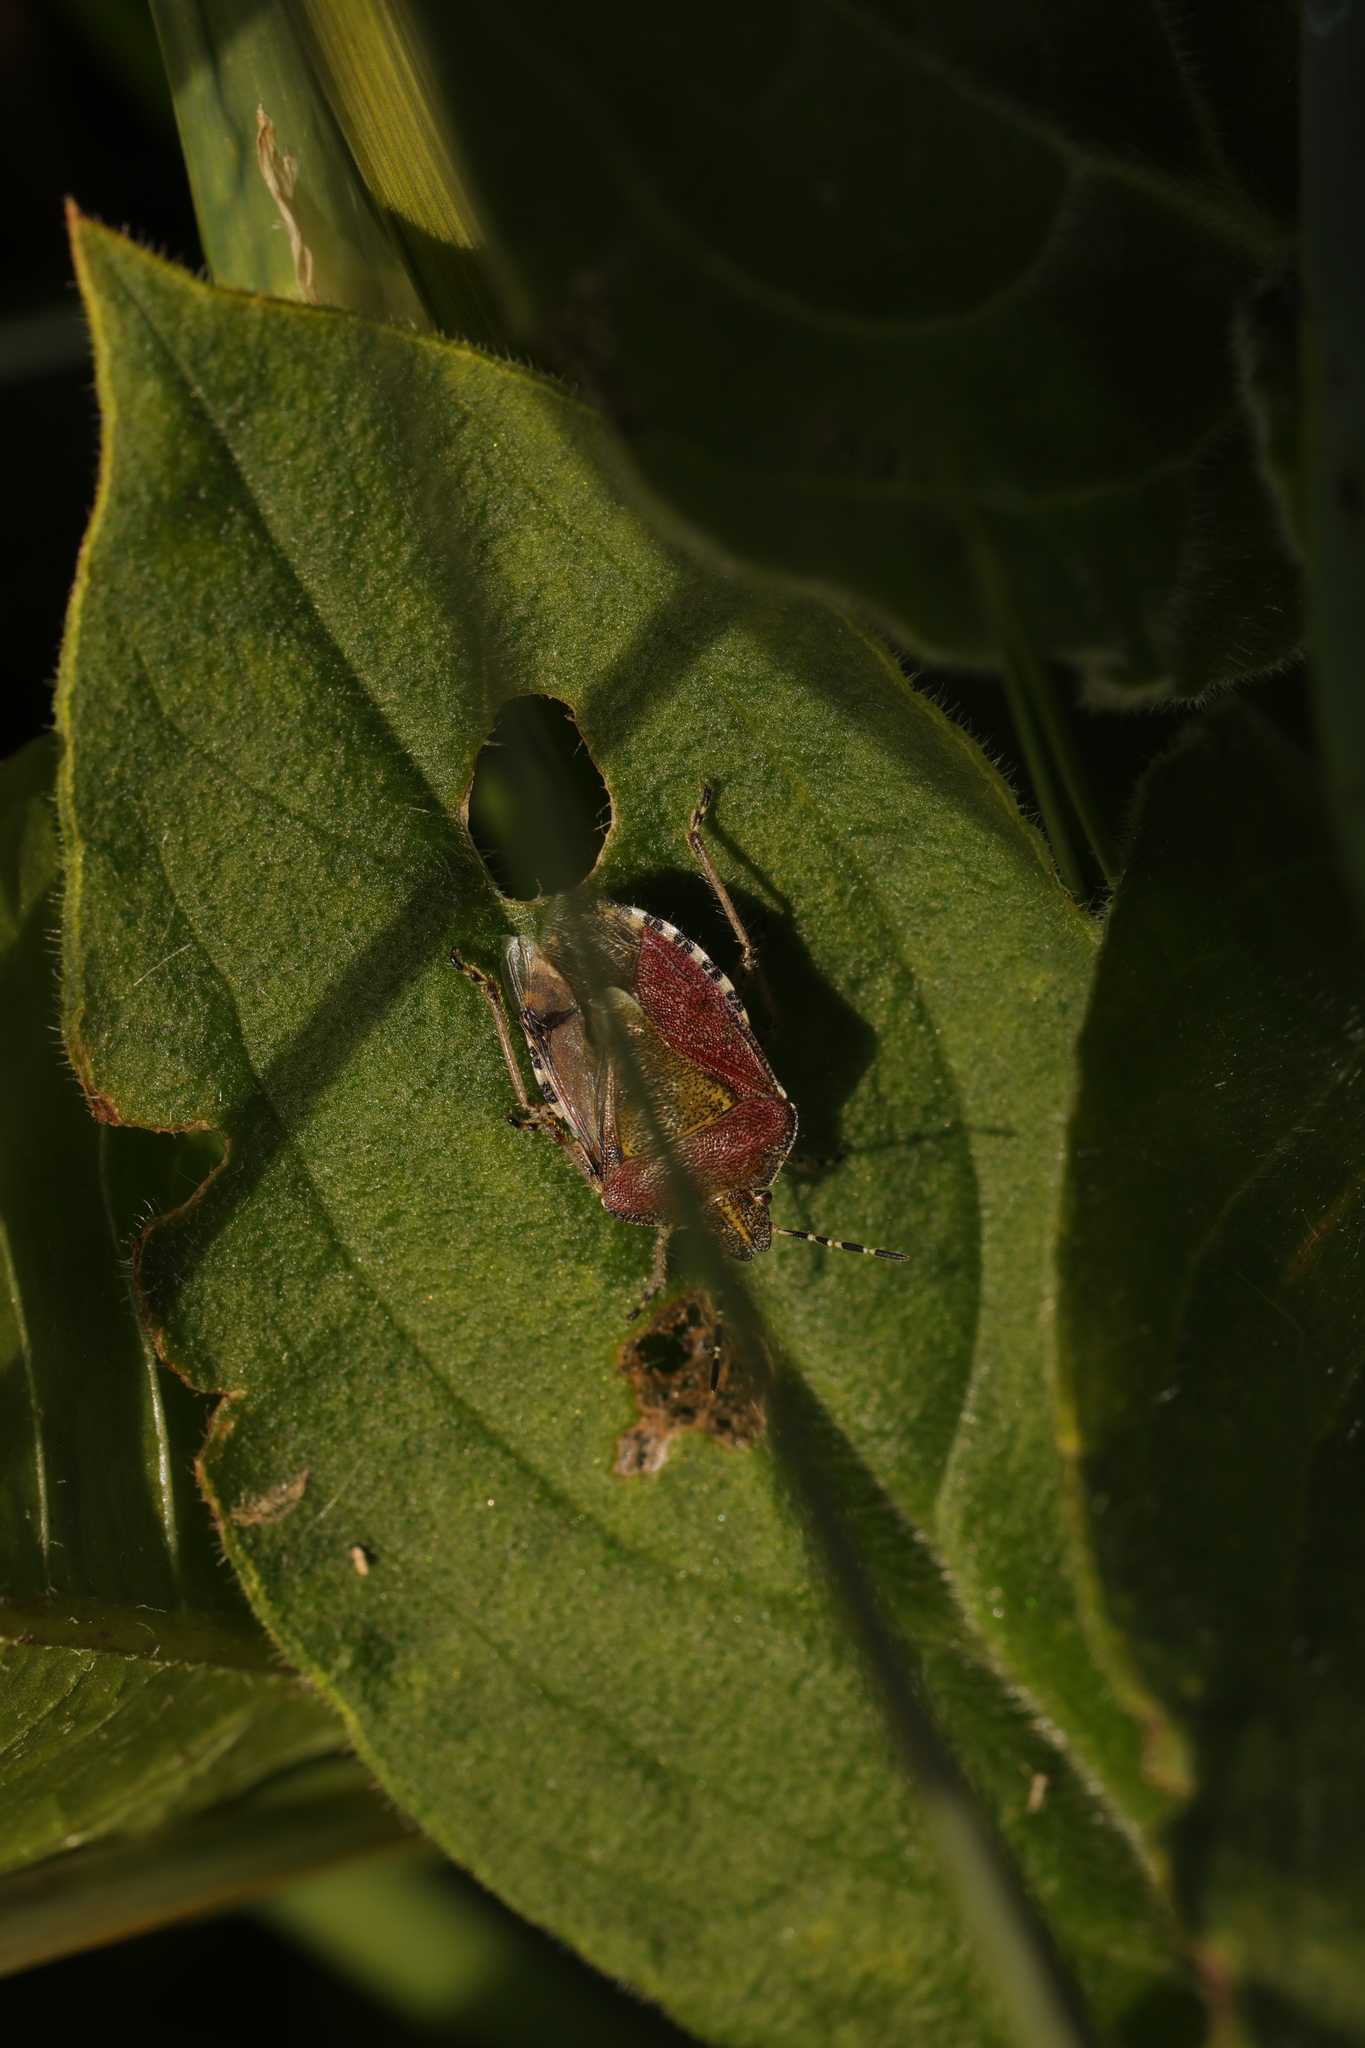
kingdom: Animalia
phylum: Arthropoda
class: Insecta
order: Hemiptera
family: Pentatomidae
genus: Dolycoris
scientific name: Dolycoris baccarum
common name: Sloe bug
